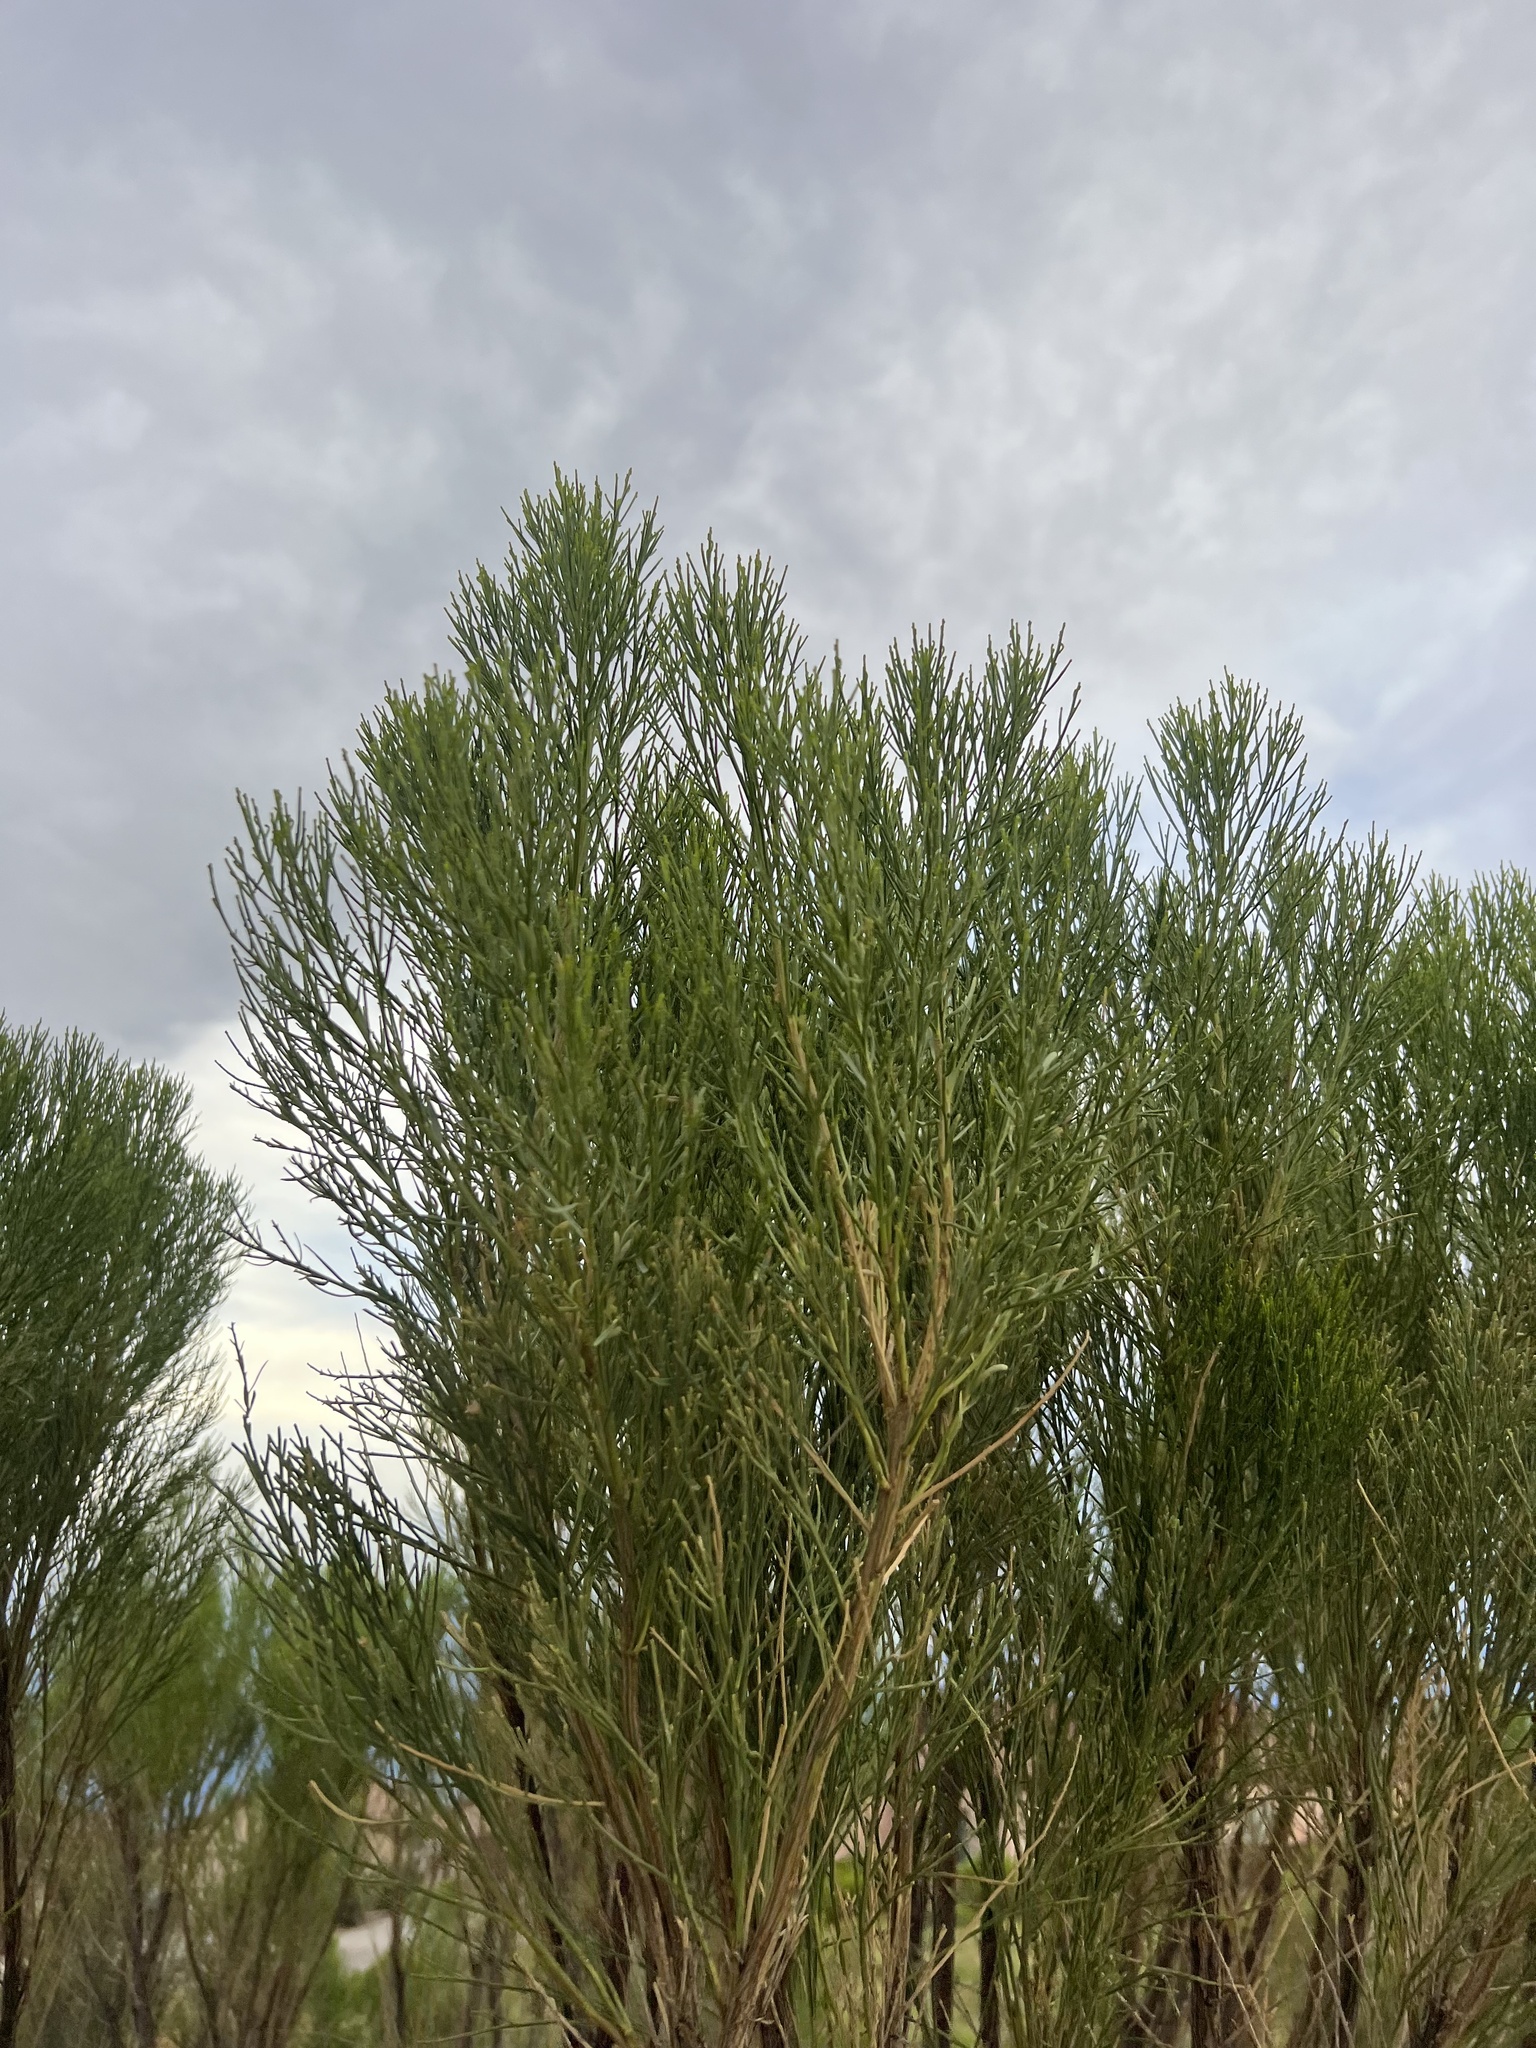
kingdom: Plantae
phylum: Tracheophyta
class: Magnoliopsida
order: Asterales
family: Asteraceae
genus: Baccharis
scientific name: Baccharis sarothroides
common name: Desert-broom
